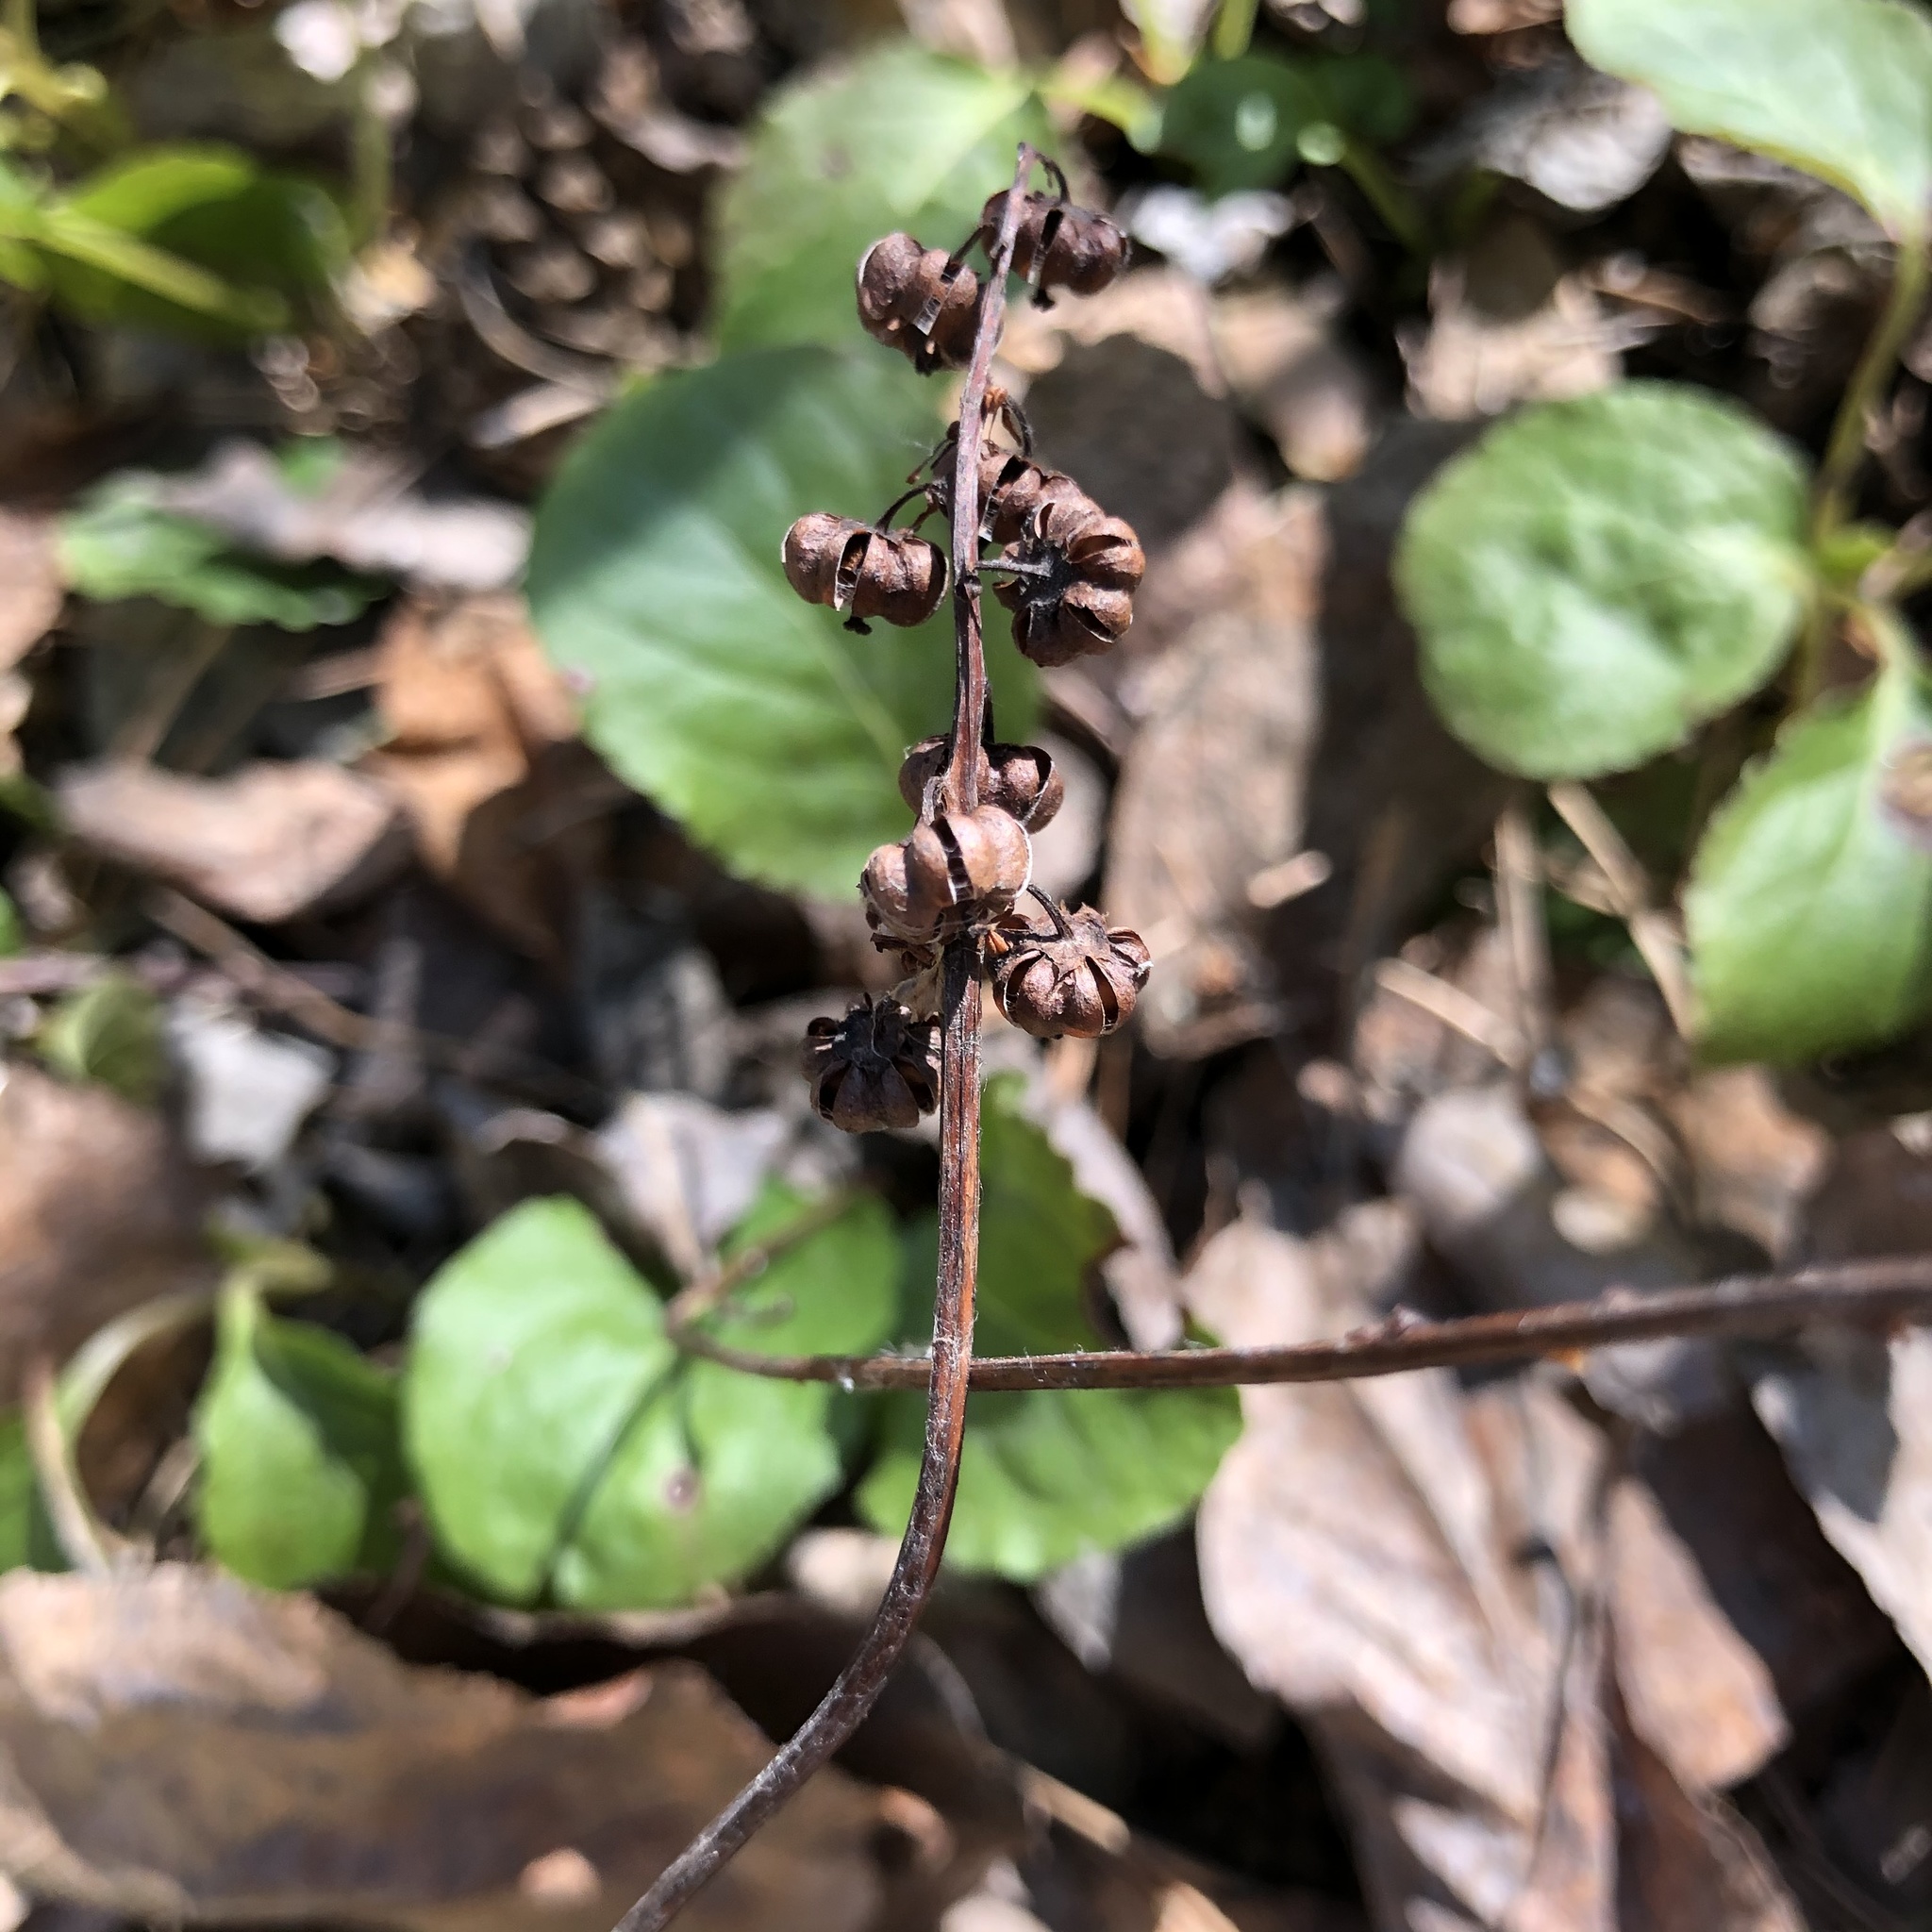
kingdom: Plantae
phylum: Tracheophyta
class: Magnoliopsida
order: Ericales
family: Ericaceae
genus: Pyrola
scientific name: Pyrola minor
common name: Common wintergreen
